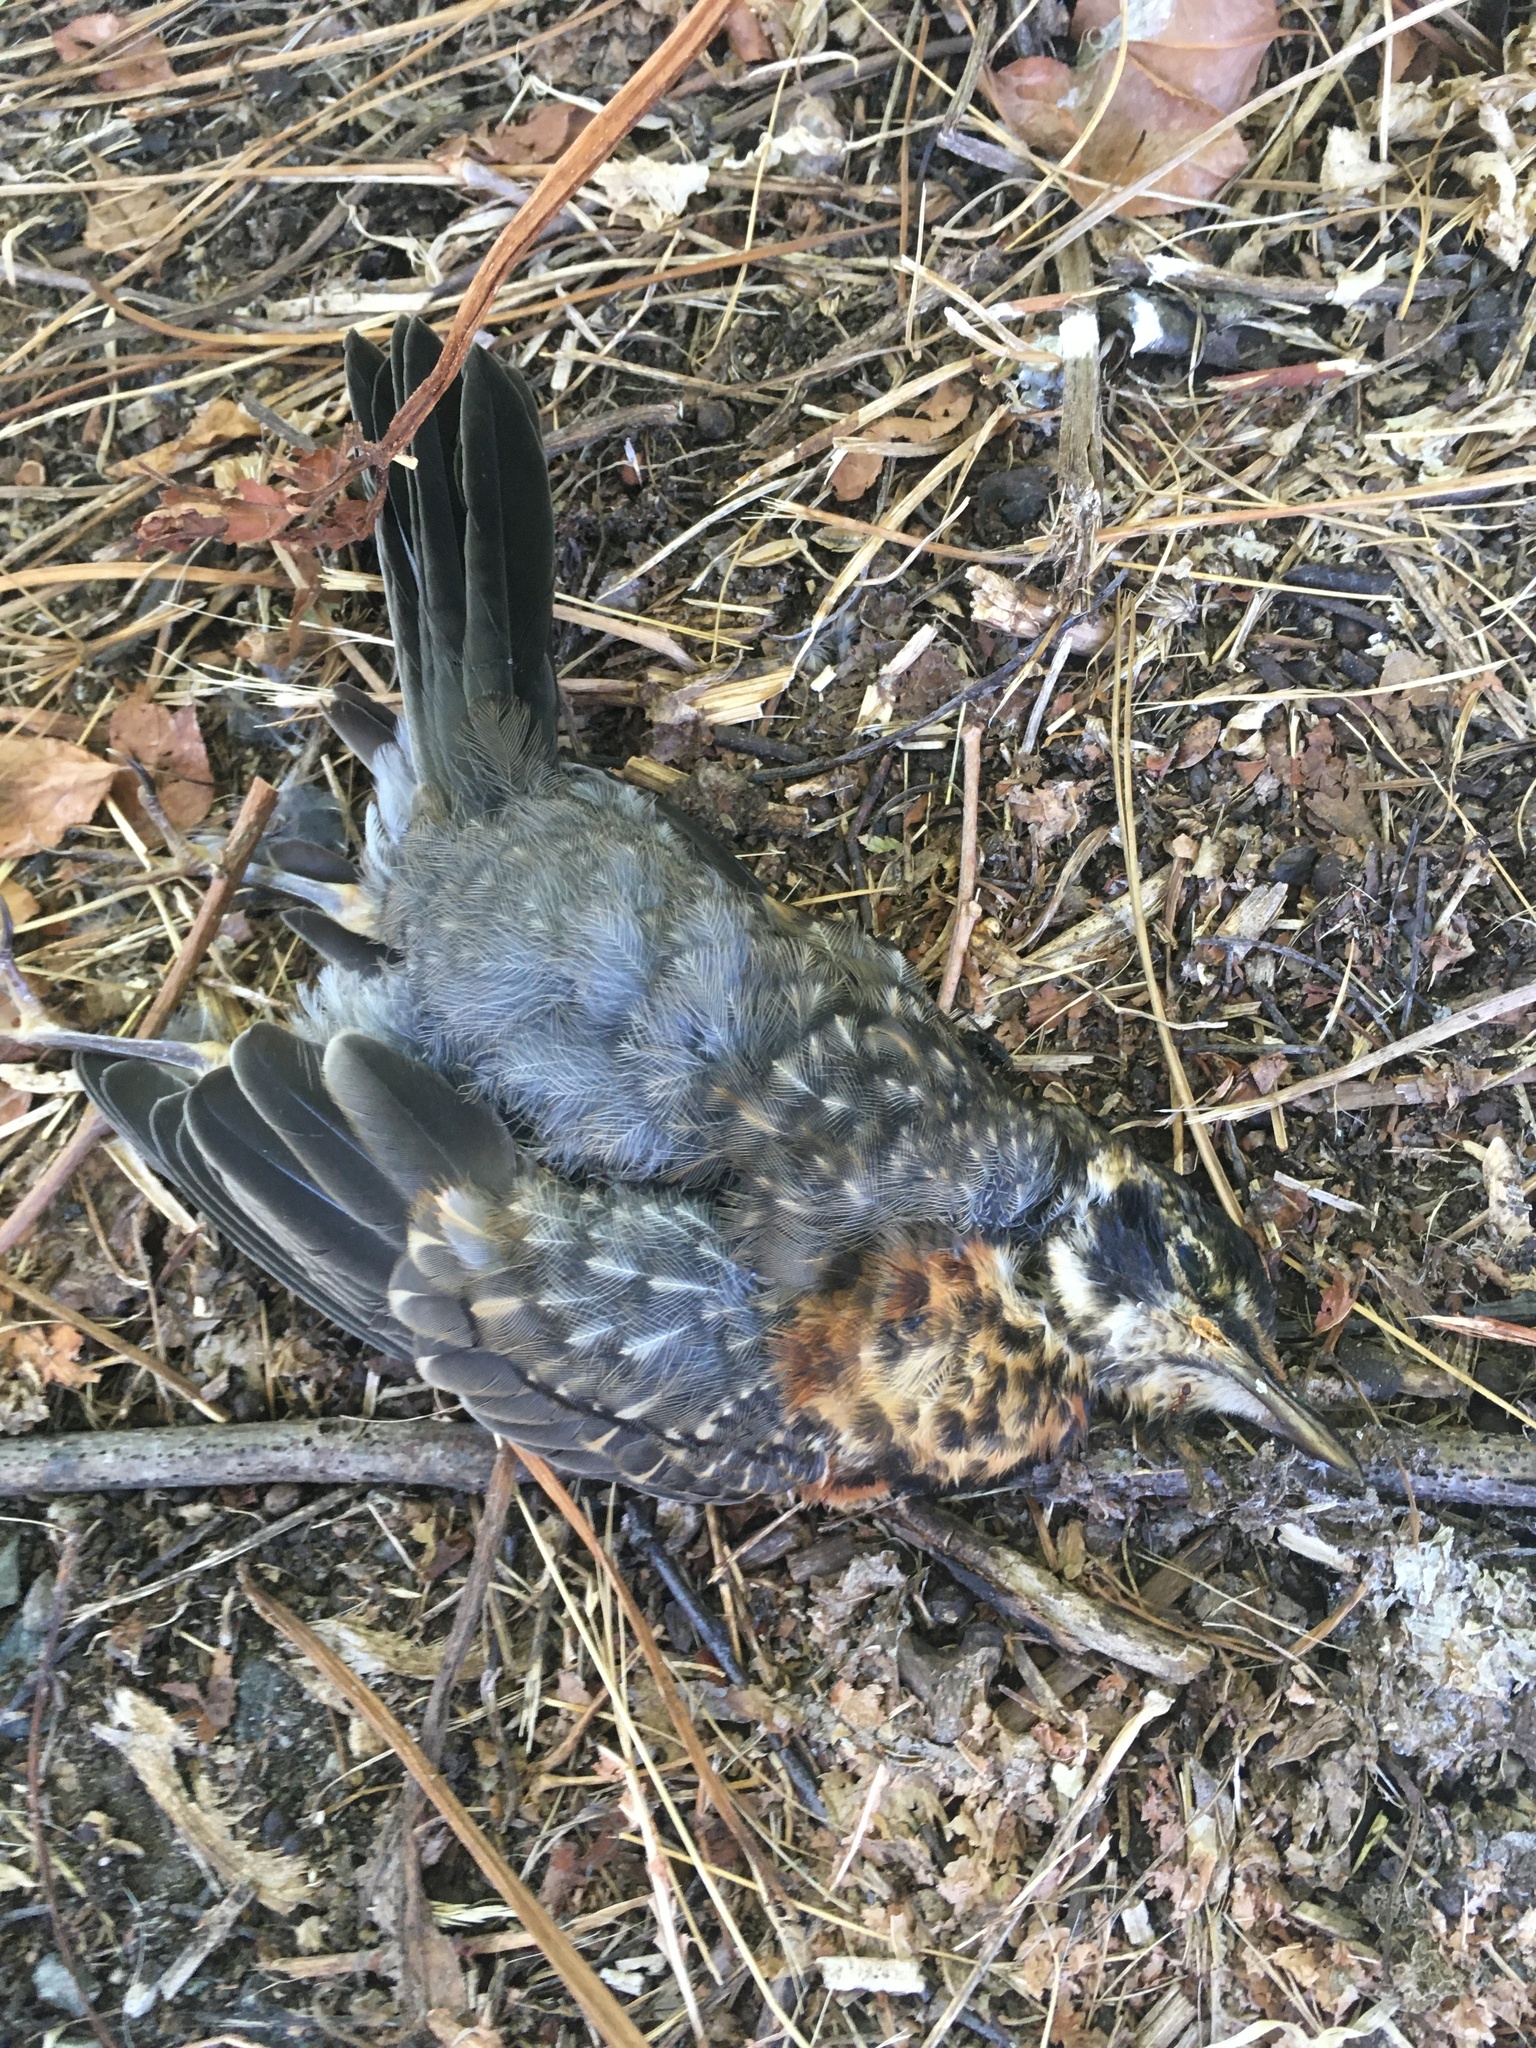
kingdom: Animalia
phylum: Chordata
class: Aves
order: Passeriformes
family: Turdidae
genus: Turdus
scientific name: Turdus migratorius
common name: American robin
